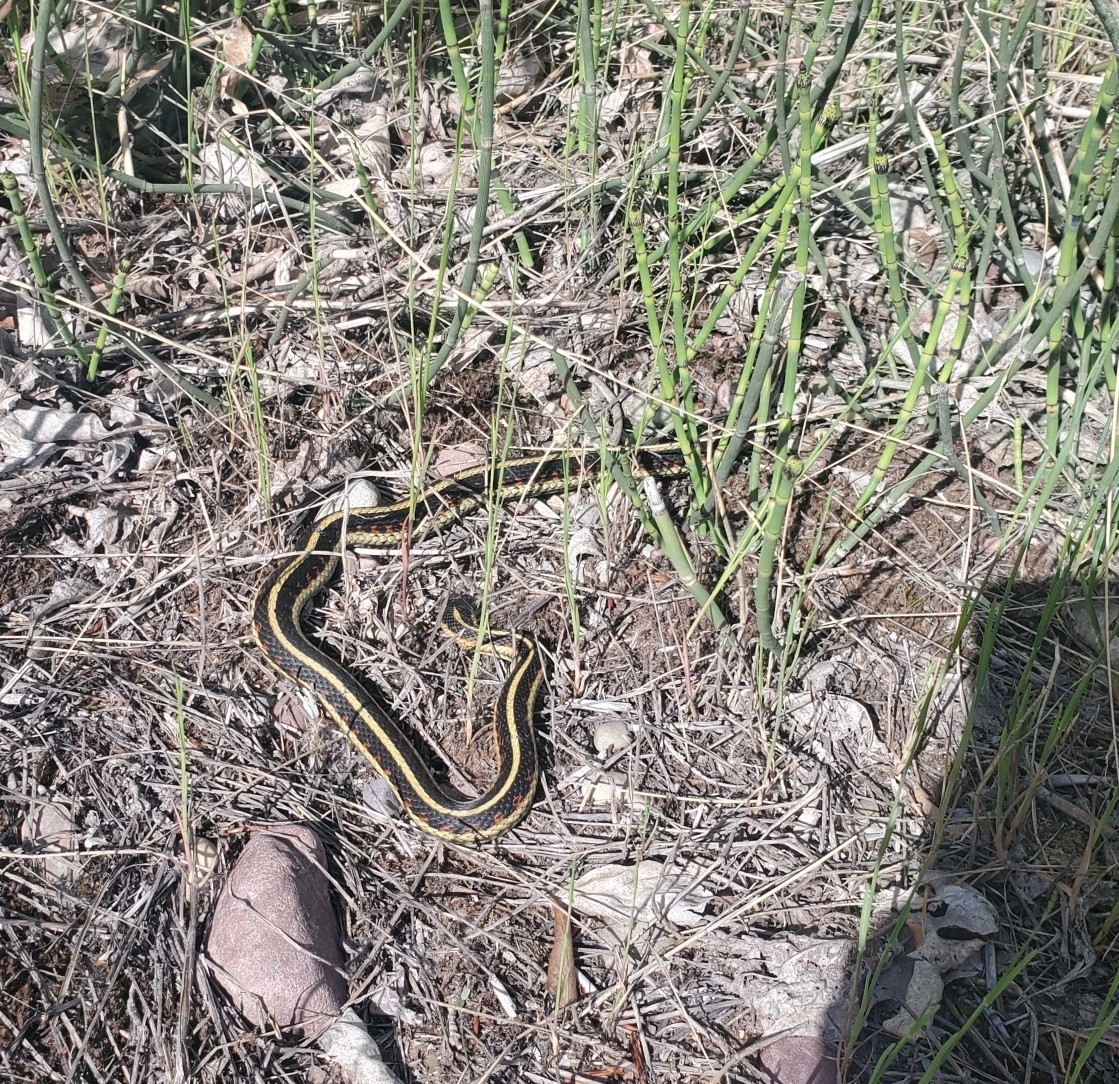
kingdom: Animalia
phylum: Chordata
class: Squamata
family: Colubridae
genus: Thamnophis
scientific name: Thamnophis sirtalis
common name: Common garter snake
